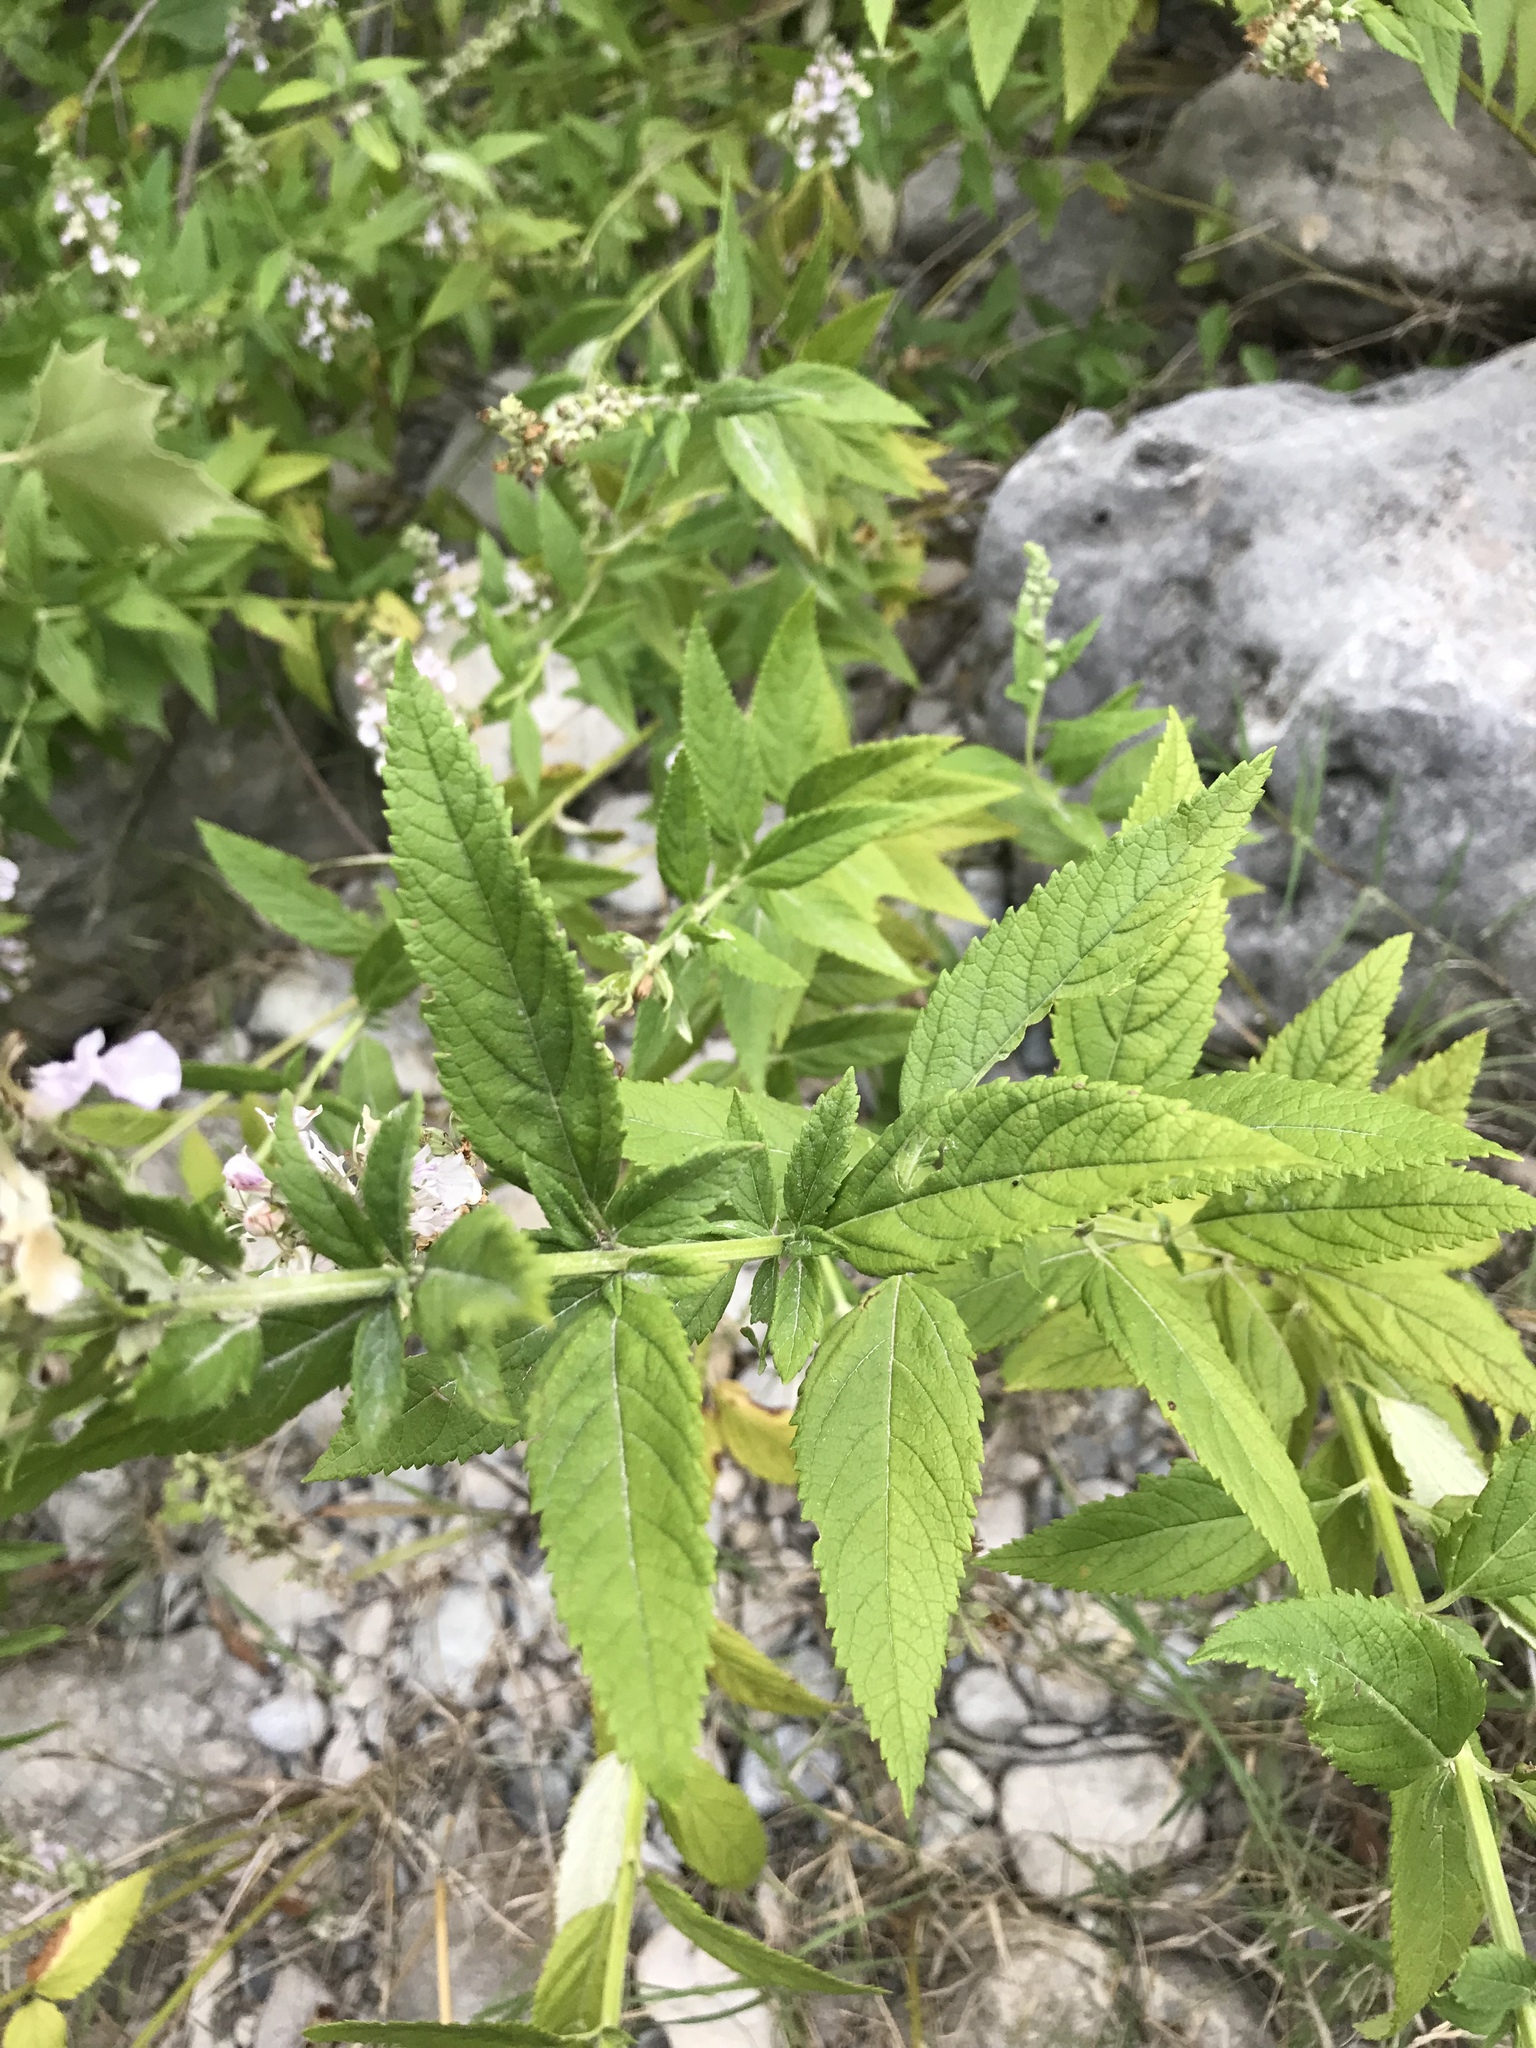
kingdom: Plantae
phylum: Tracheophyta
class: Magnoliopsida
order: Lamiales
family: Lamiaceae
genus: Teucrium
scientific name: Teucrium canadense
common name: American germander
